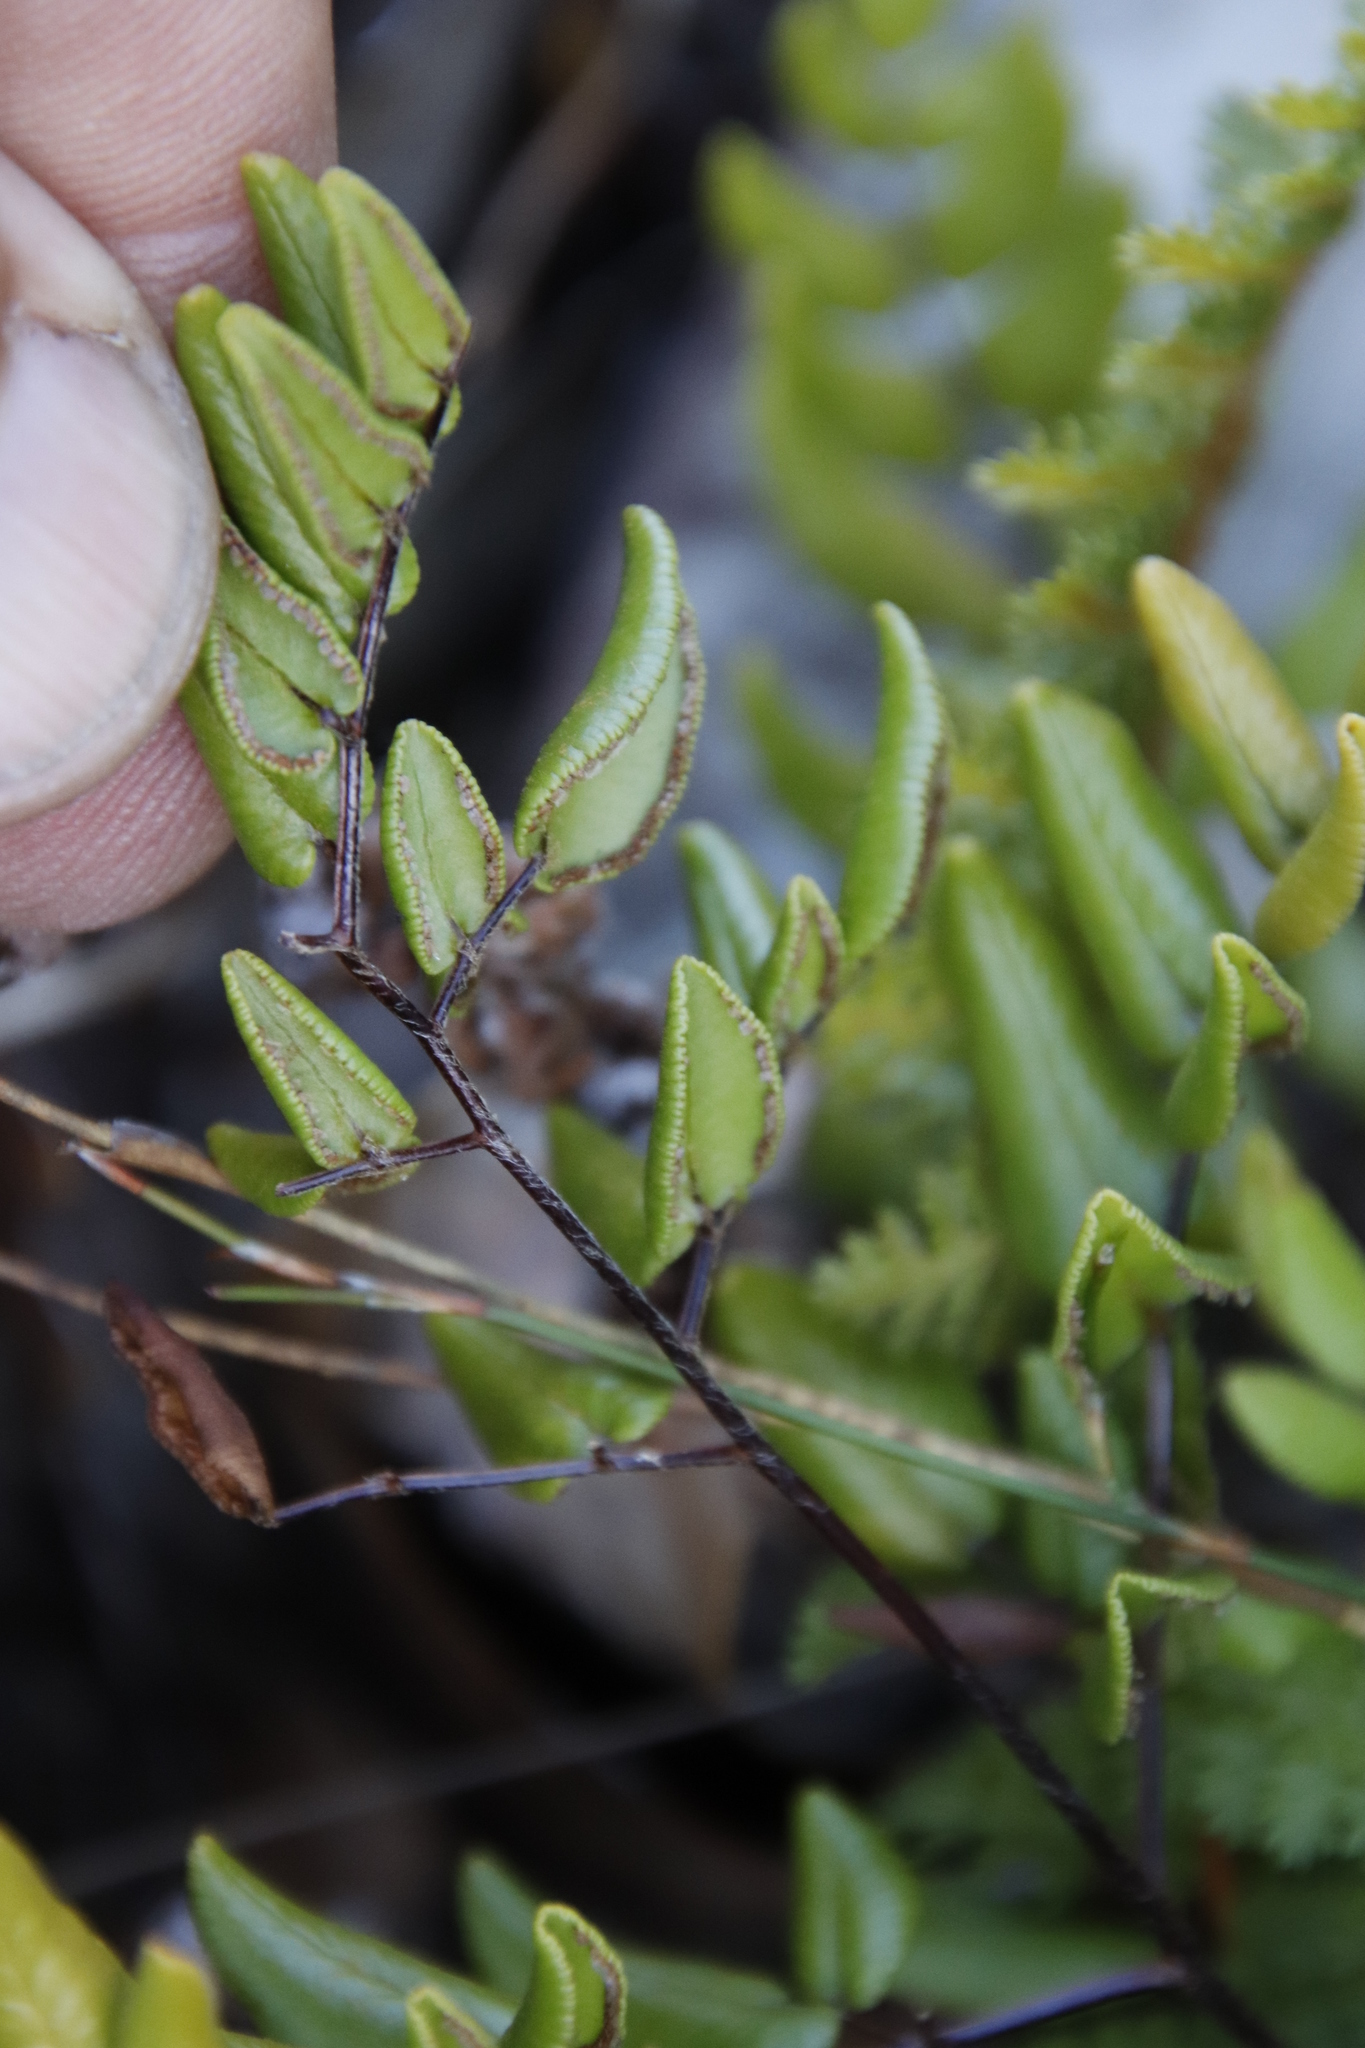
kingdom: Plantae
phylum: Tracheophyta
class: Polypodiopsida
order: Polypodiales
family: Pteridaceae
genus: Pellaea
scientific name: Pellaea pteroides
